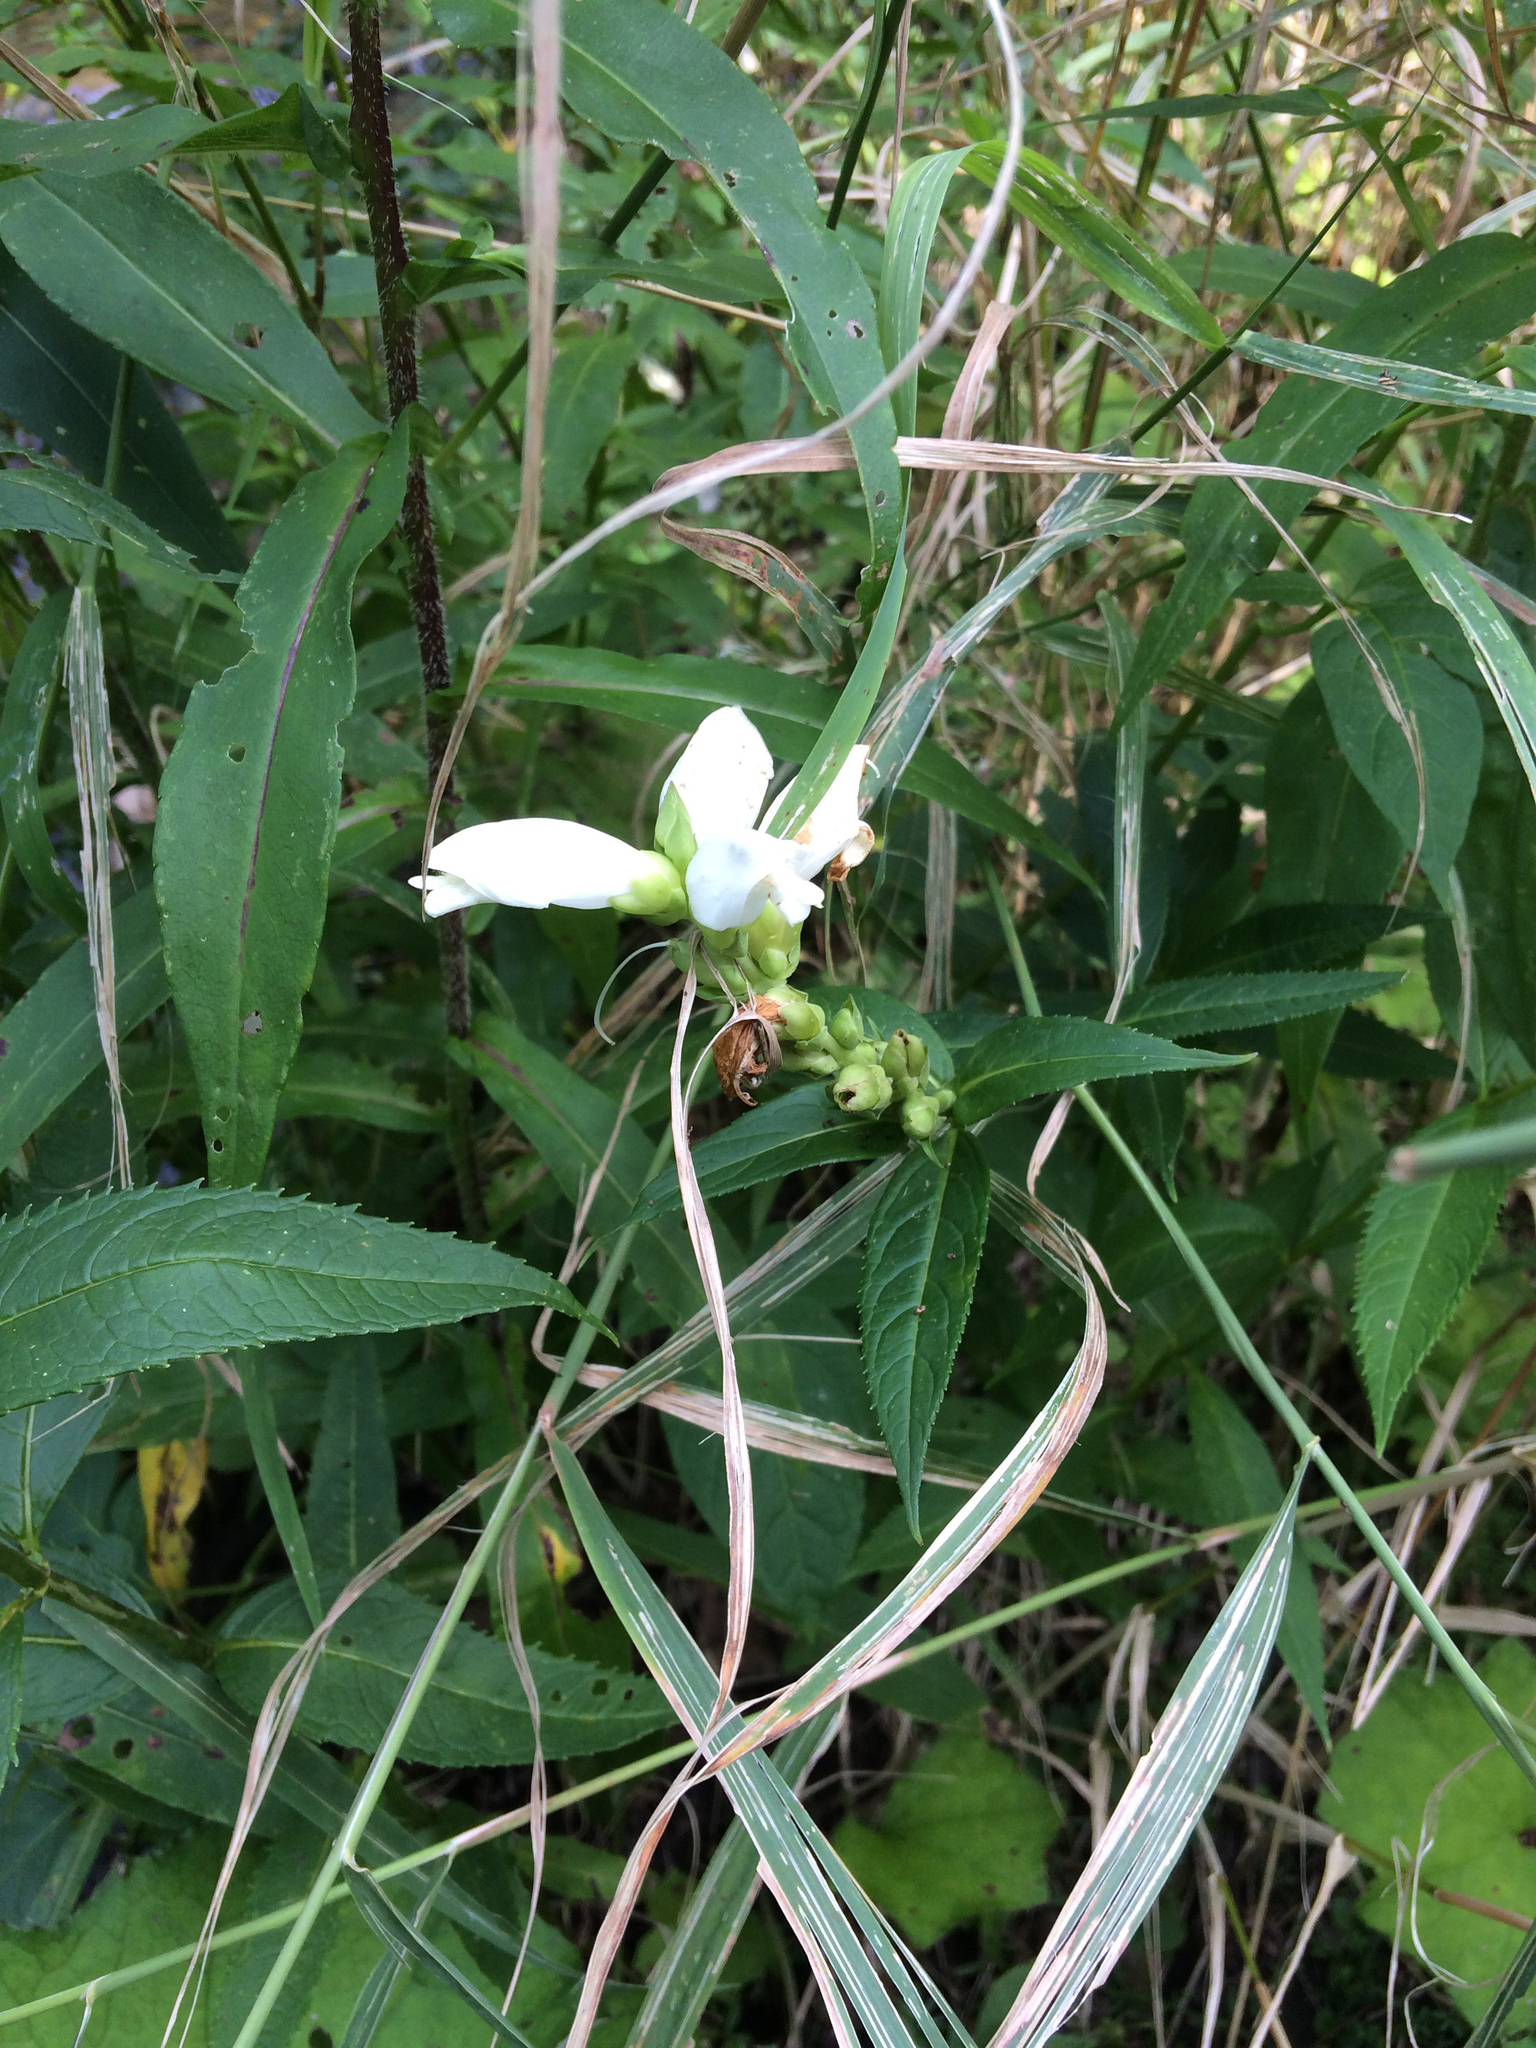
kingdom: Plantae
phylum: Tracheophyta
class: Magnoliopsida
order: Lamiales
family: Plantaginaceae
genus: Chelone
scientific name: Chelone glabra
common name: Snakehead
